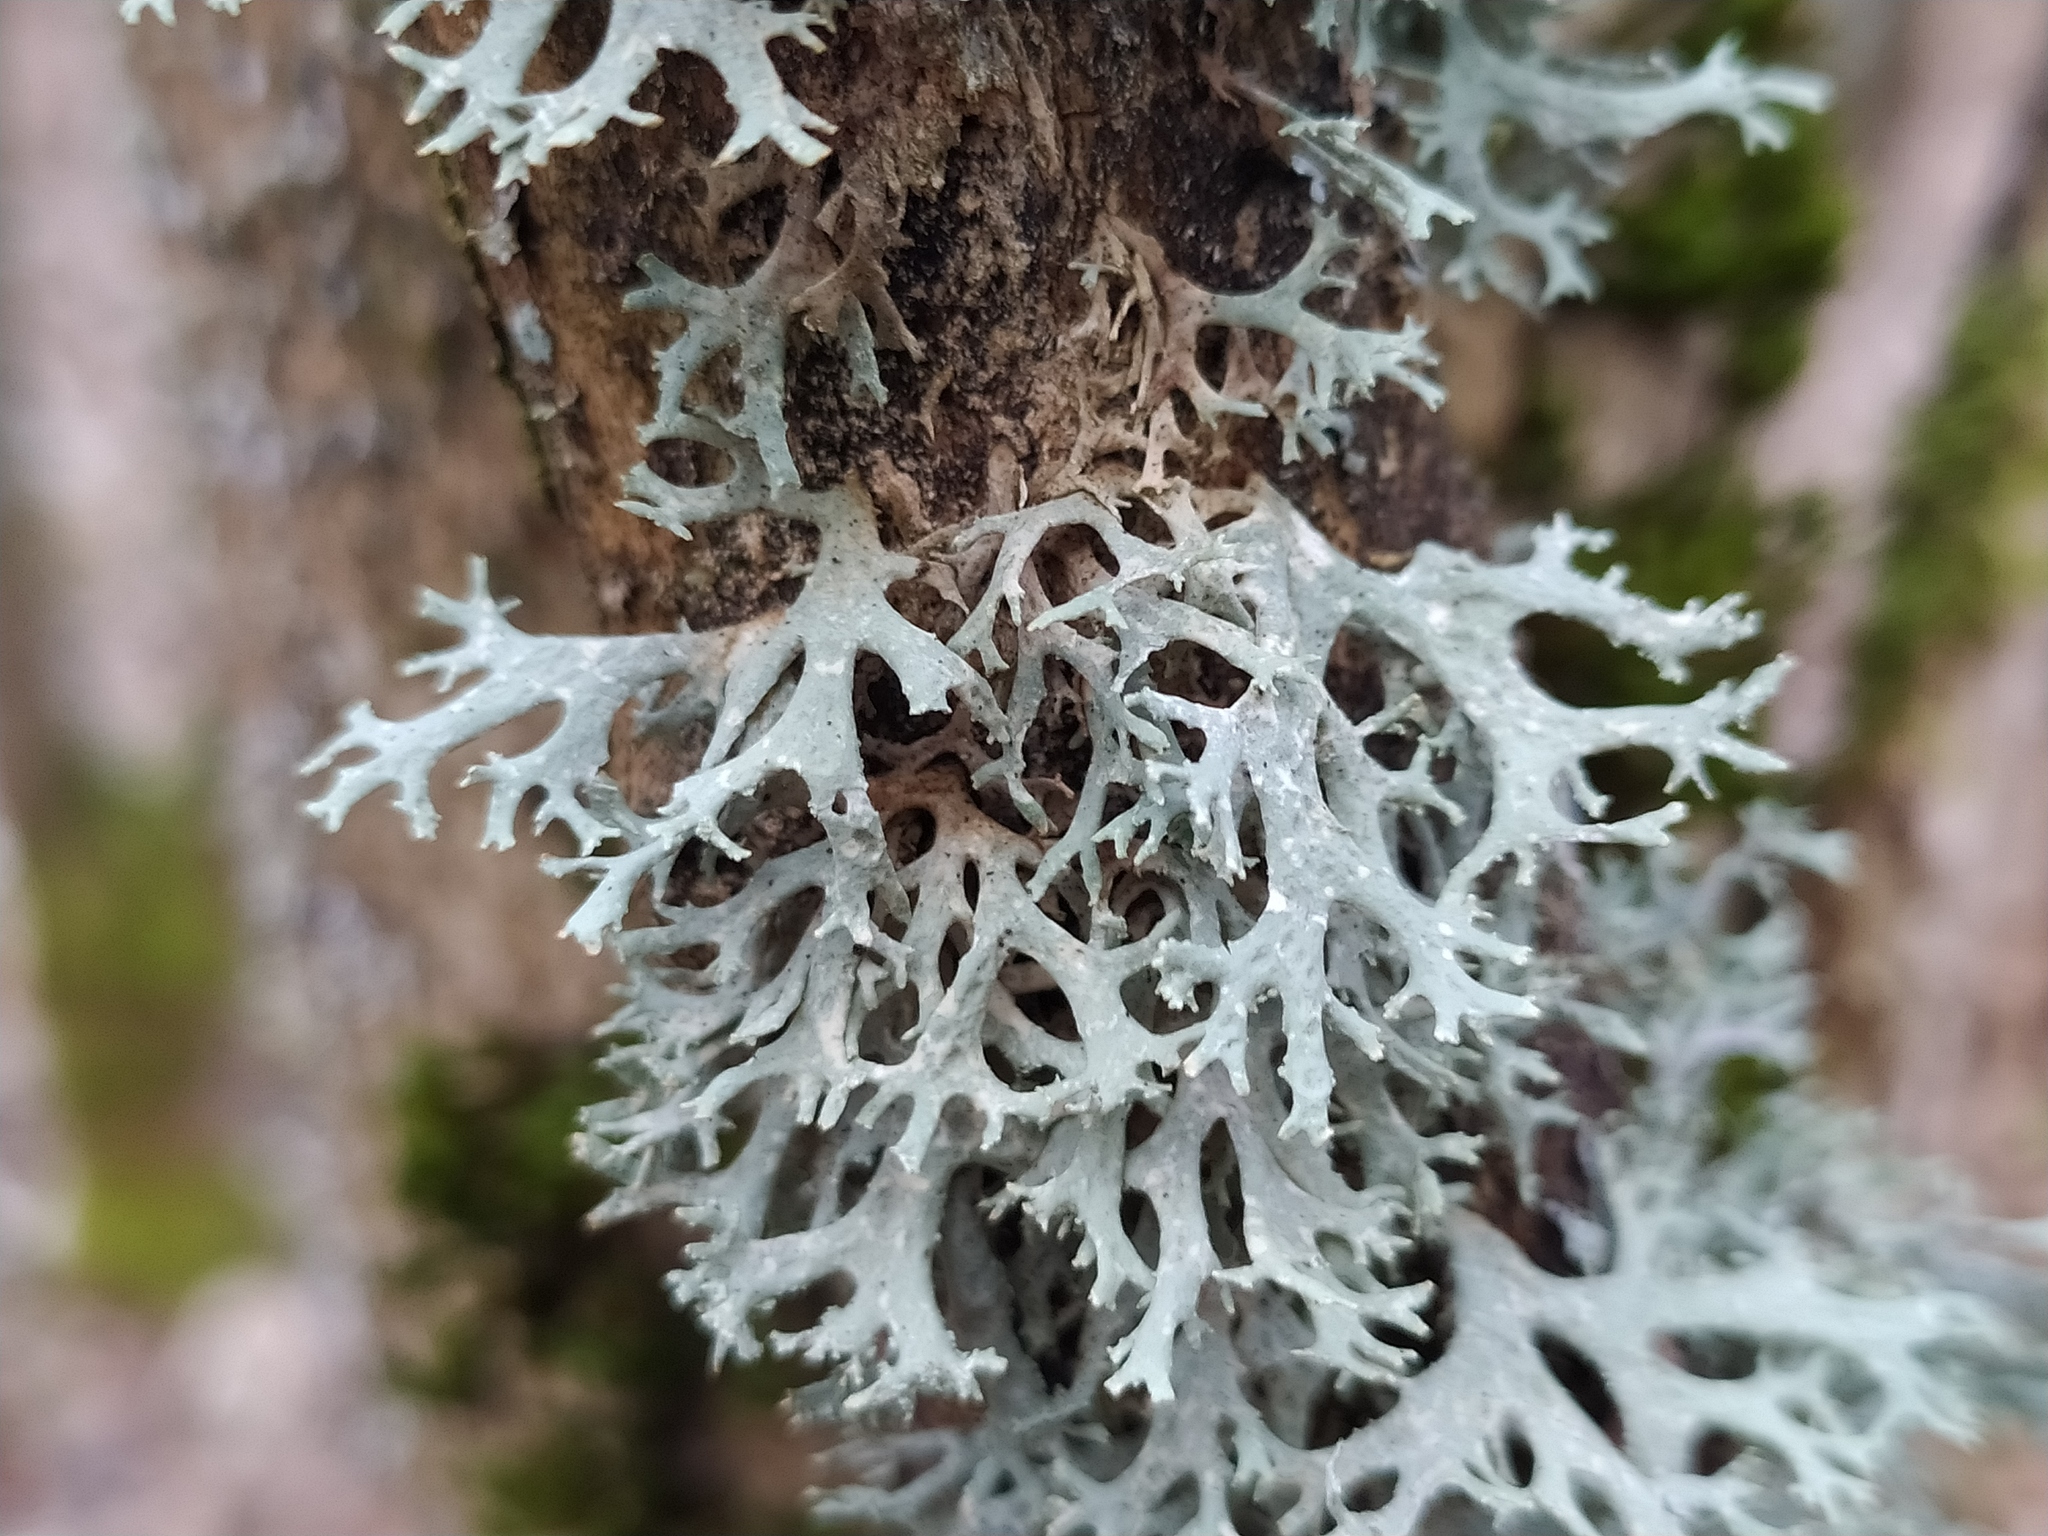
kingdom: Fungi
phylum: Ascomycota
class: Lecanoromycetes
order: Lecanorales
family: Parmeliaceae
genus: Evernia
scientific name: Evernia prunastri
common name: Oak moss
